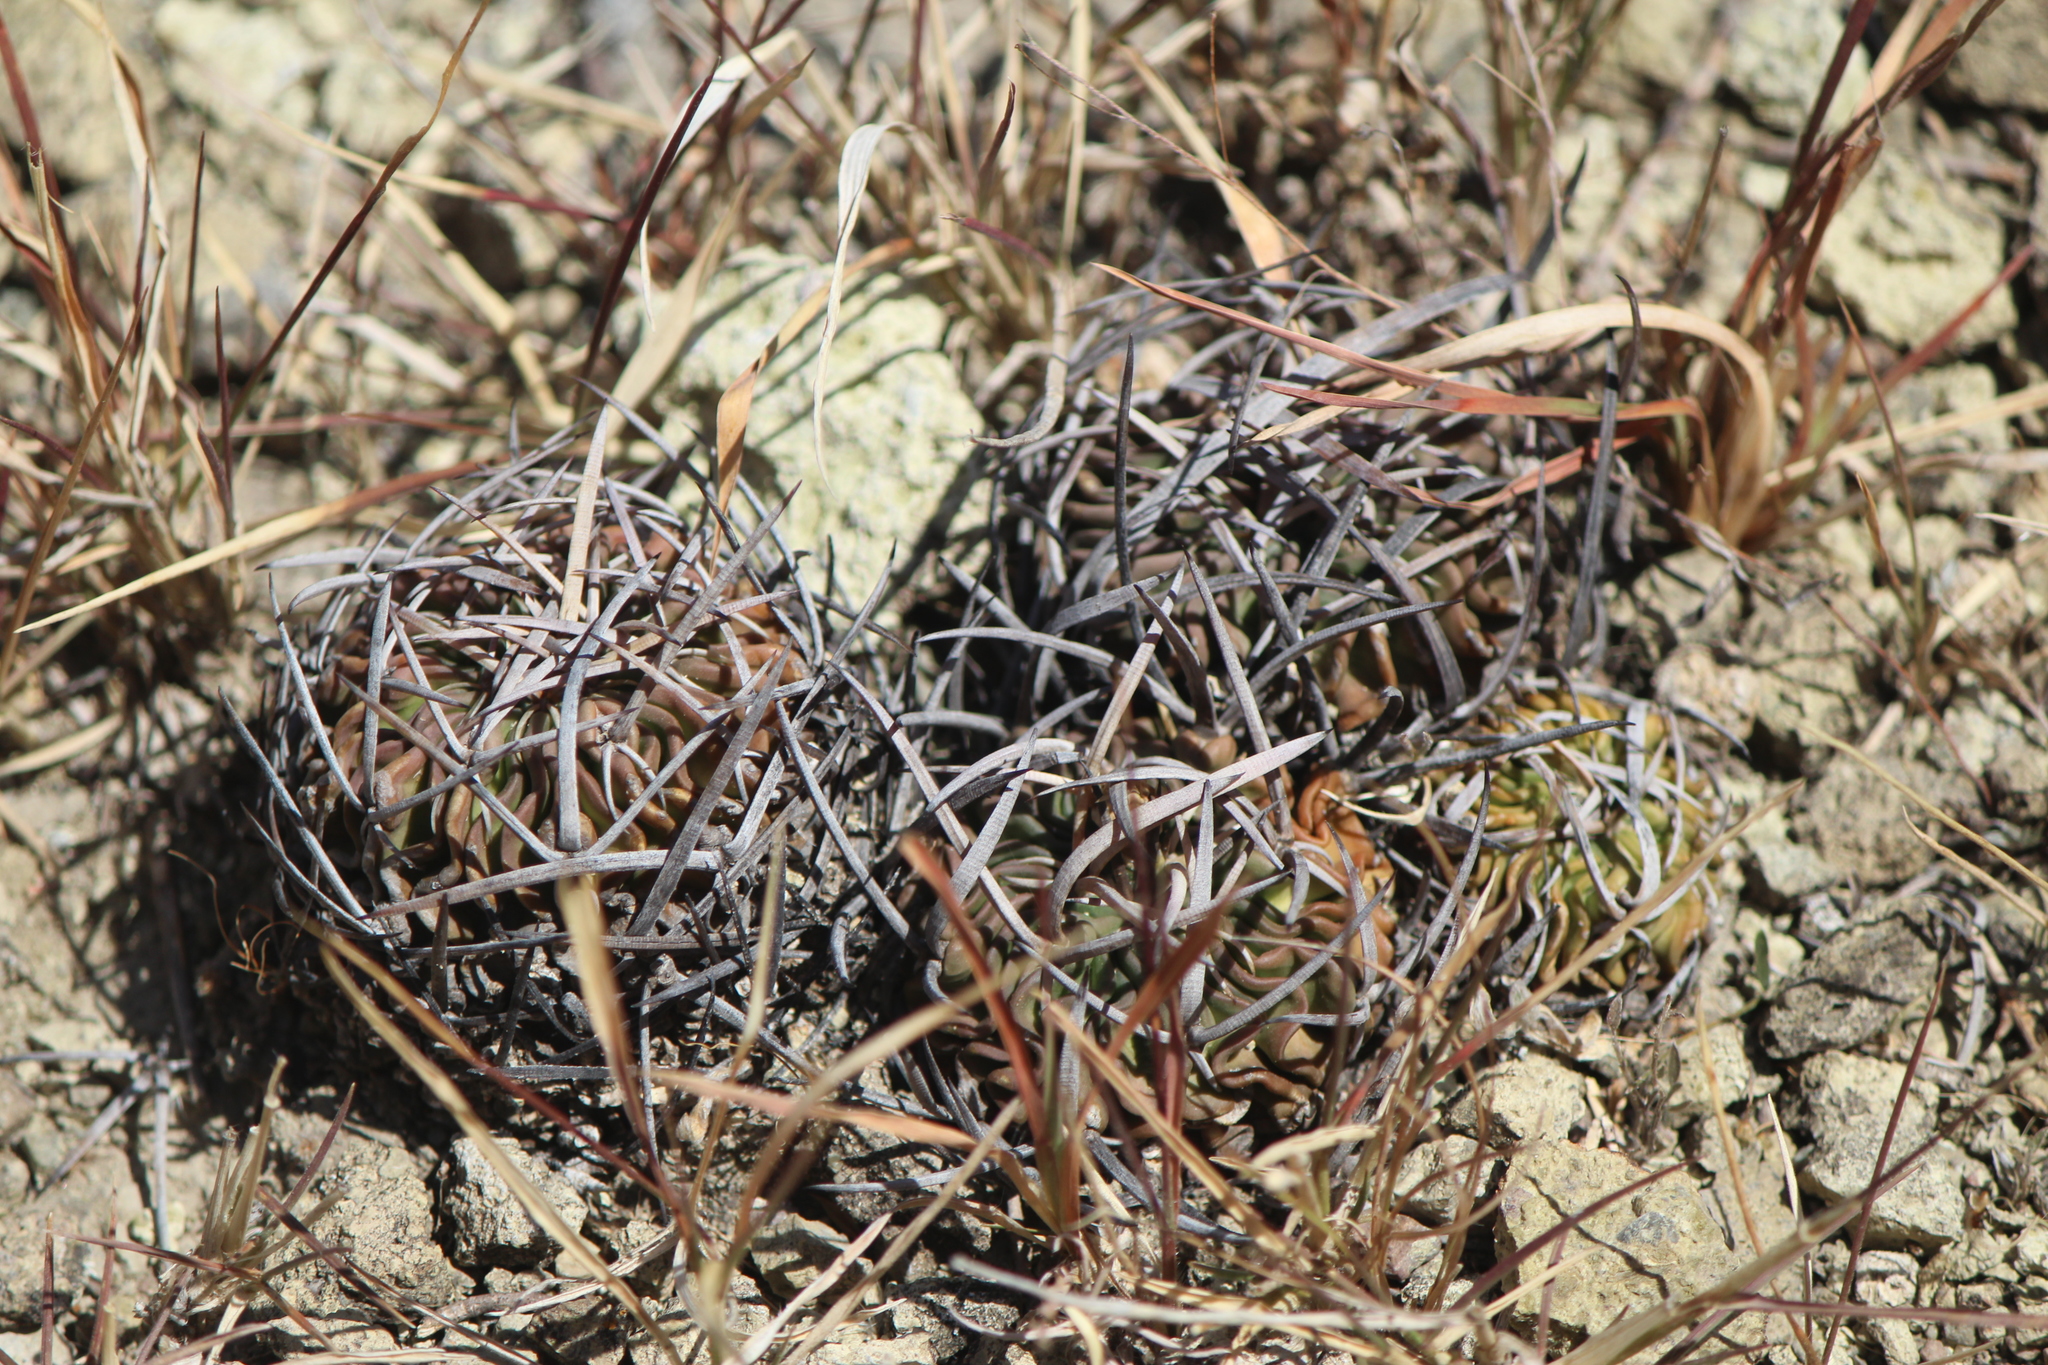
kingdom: Plantae
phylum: Tracheophyta
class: Magnoliopsida
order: Caryophyllales
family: Cactaceae
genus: Stenocactus
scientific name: Stenocactus obvallatus
